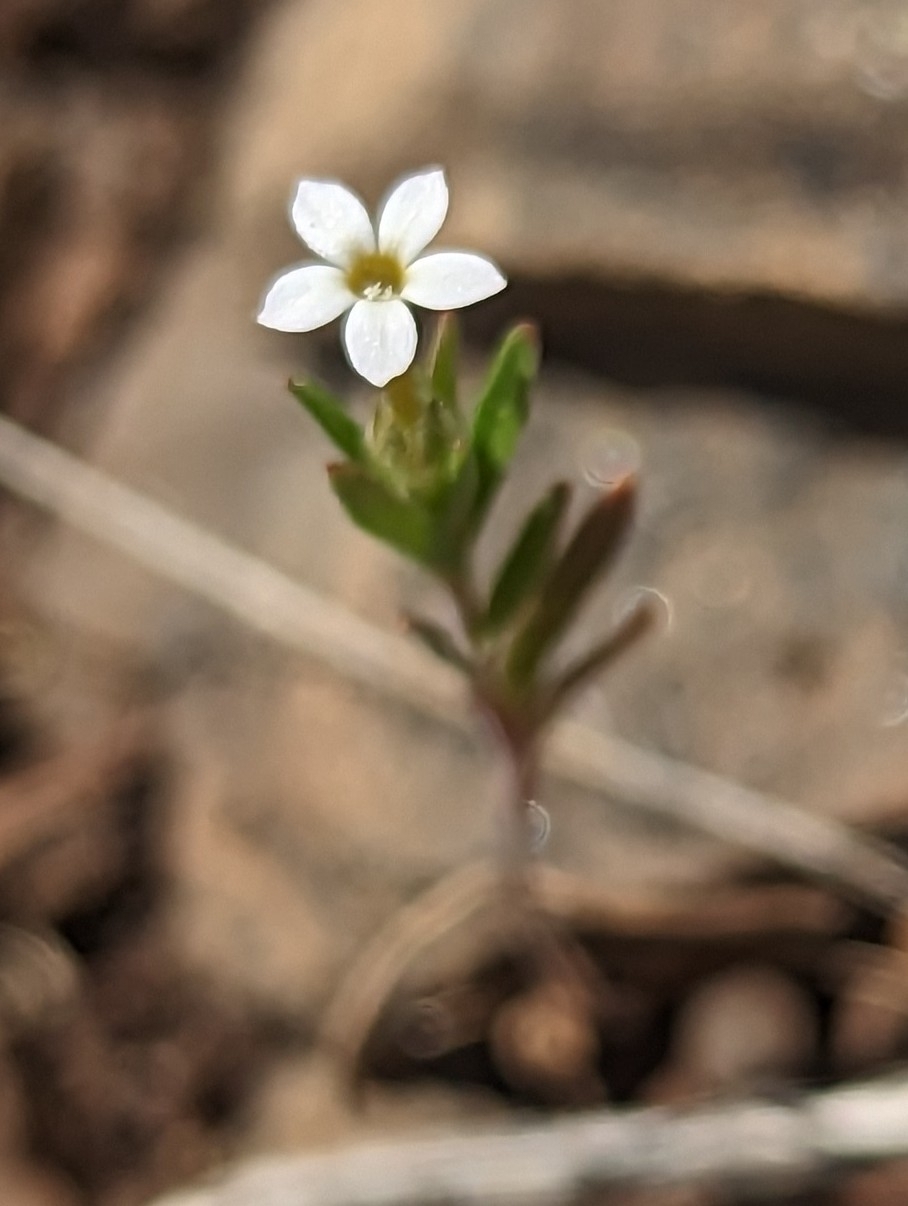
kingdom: Plantae
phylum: Tracheophyta
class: Magnoliopsida
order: Ericales
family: Polemoniaceae
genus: Collomia
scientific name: Collomia linearis
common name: Tiny trumpet
